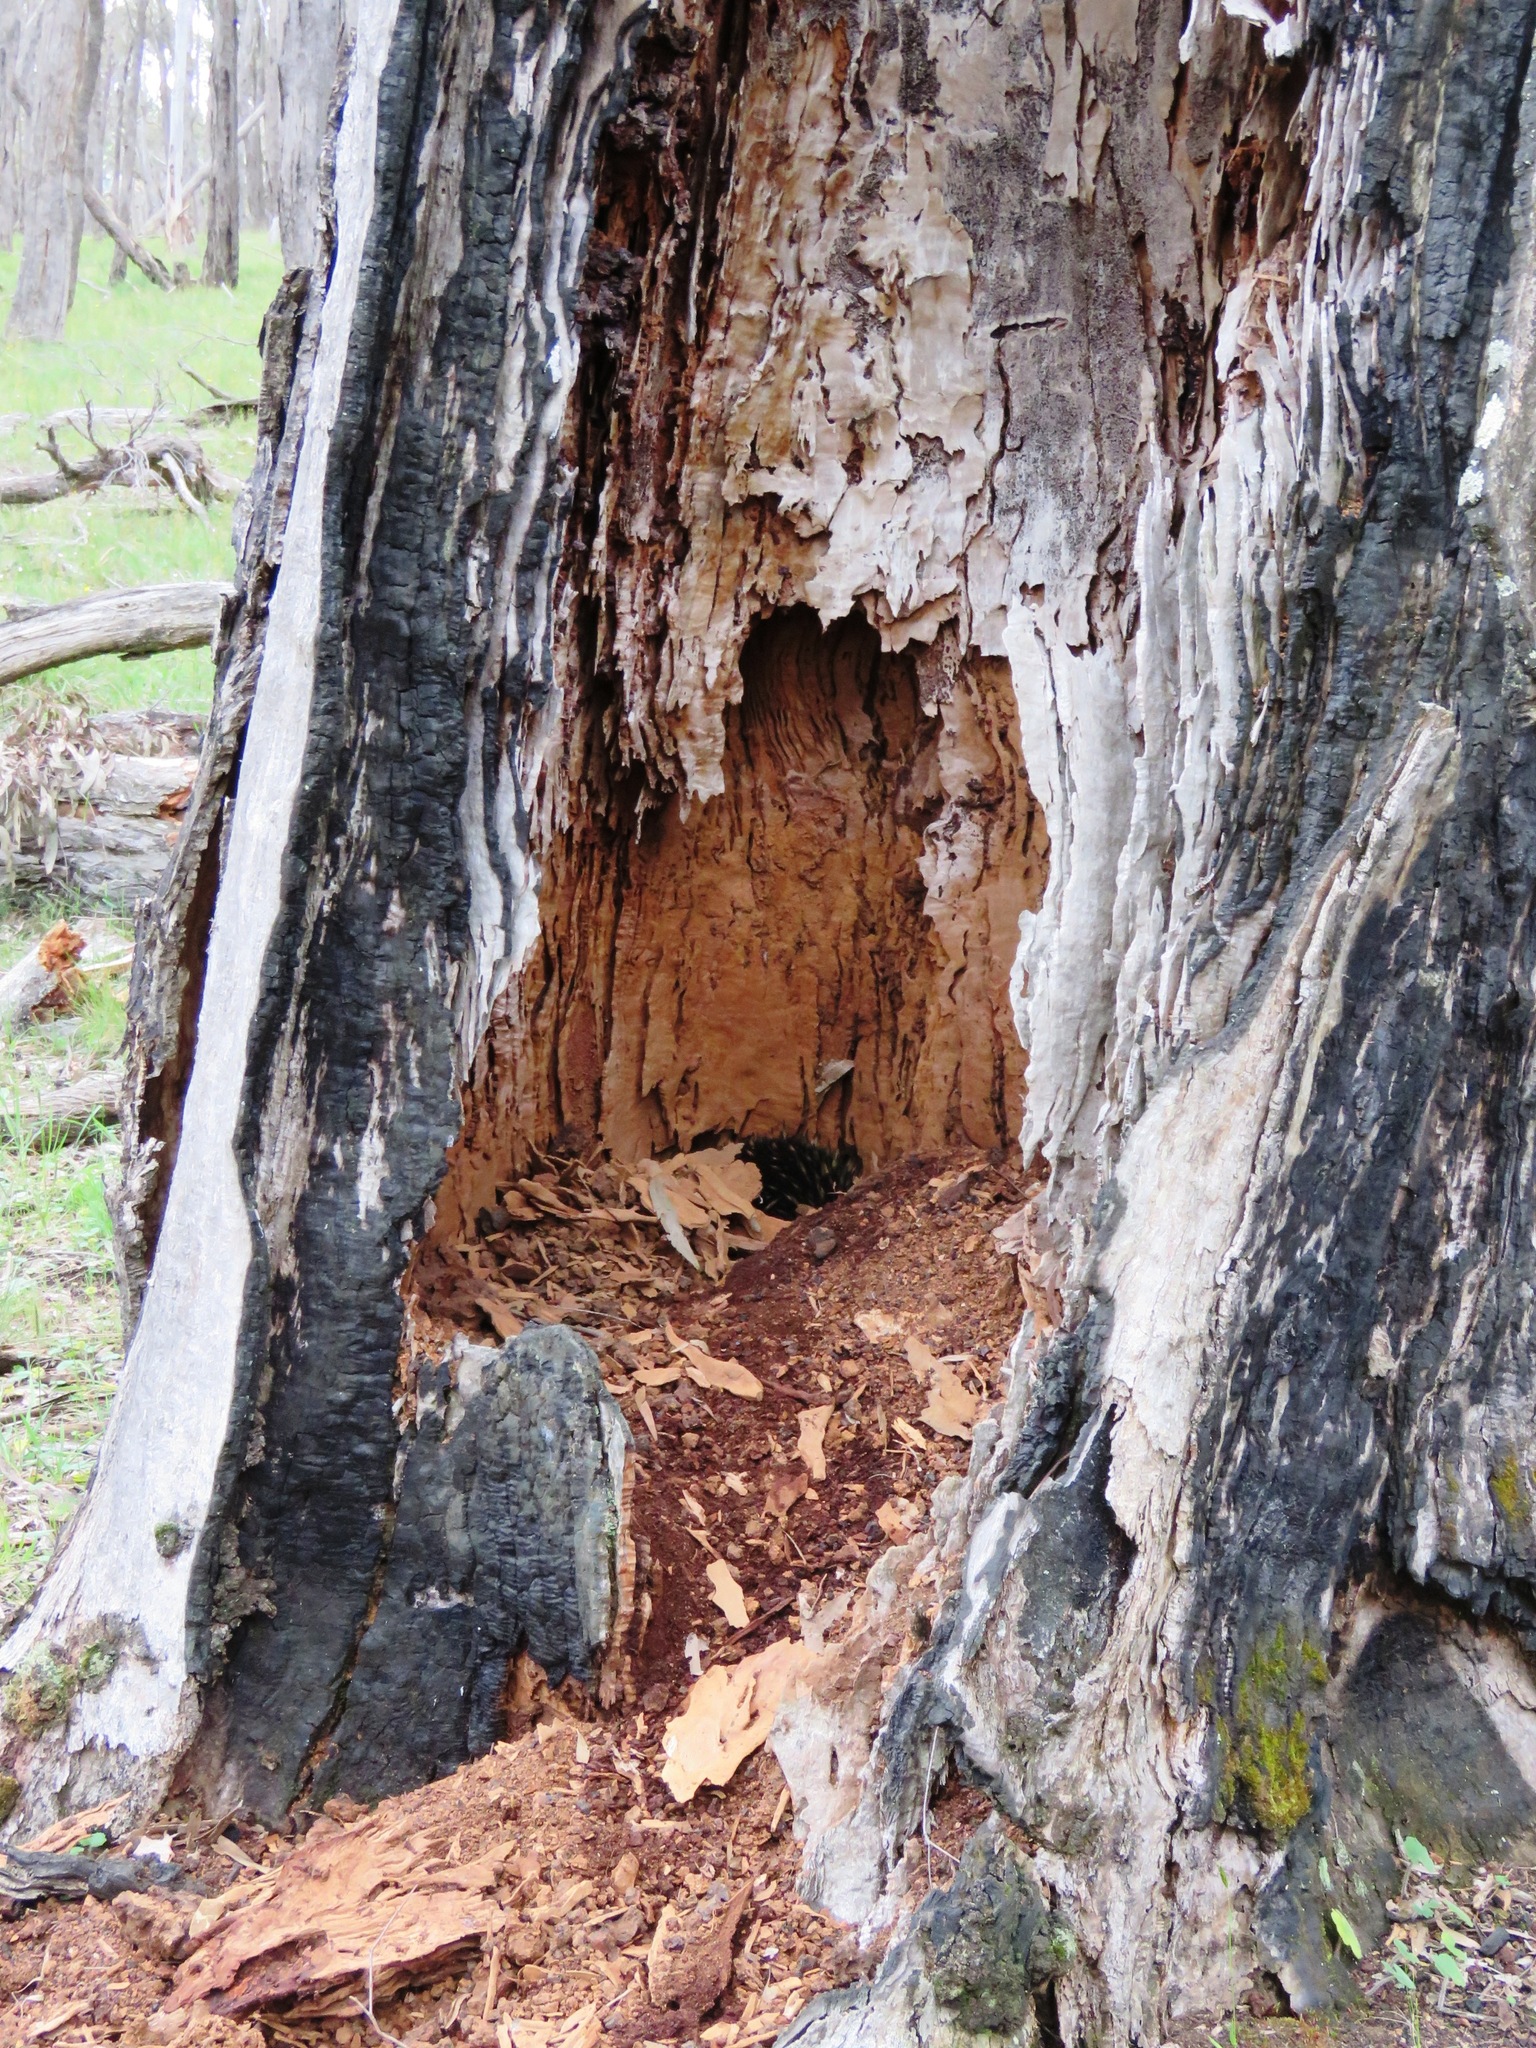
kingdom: Animalia
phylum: Chordata
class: Mammalia
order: Monotremata
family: Tachyglossidae
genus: Tachyglossus
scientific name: Tachyglossus aculeatus
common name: Short-beaked echidna
